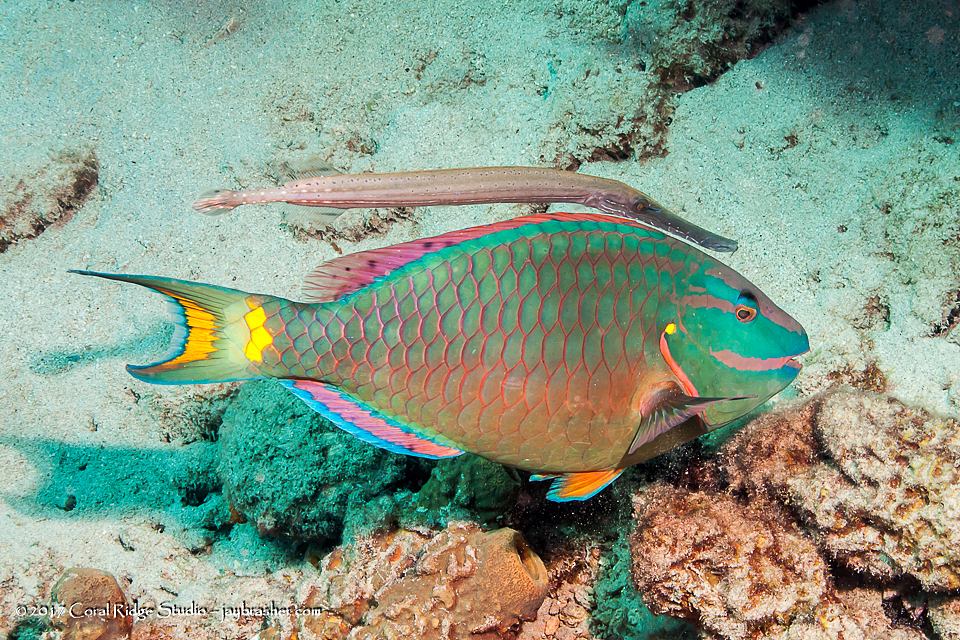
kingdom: Animalia
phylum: Chordata
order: Syngnathiformes
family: Aulostomidae
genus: Aulostomus
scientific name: Aulostomus maculatus
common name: West atlantic trumpetfish
